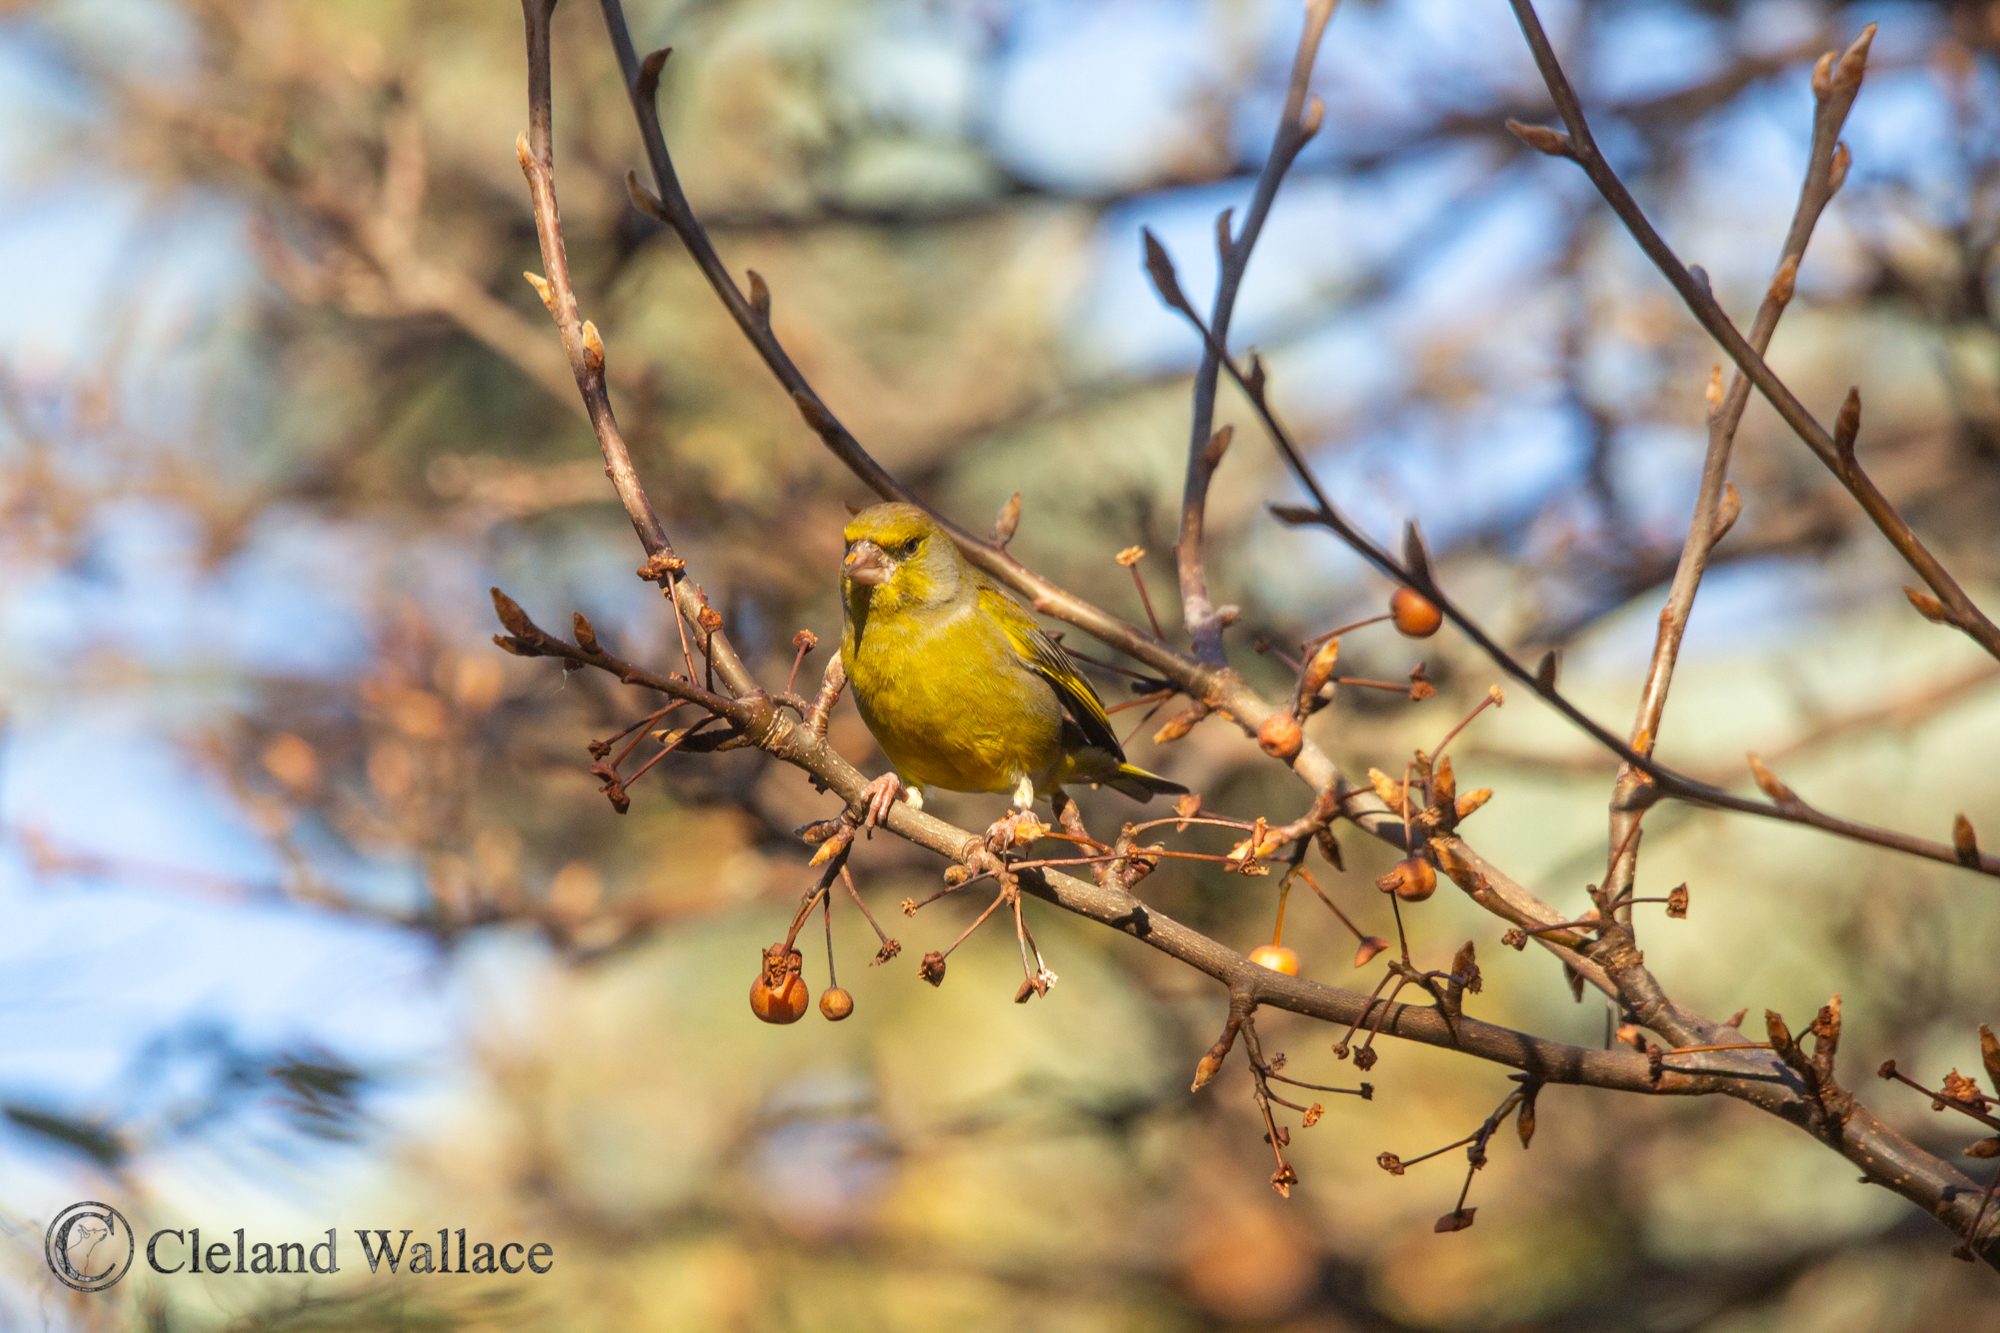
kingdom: Plantae
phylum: Tracheophyta
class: Liliopsida
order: Poales
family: Poaceae
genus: Chloris
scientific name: Chloris chloris
